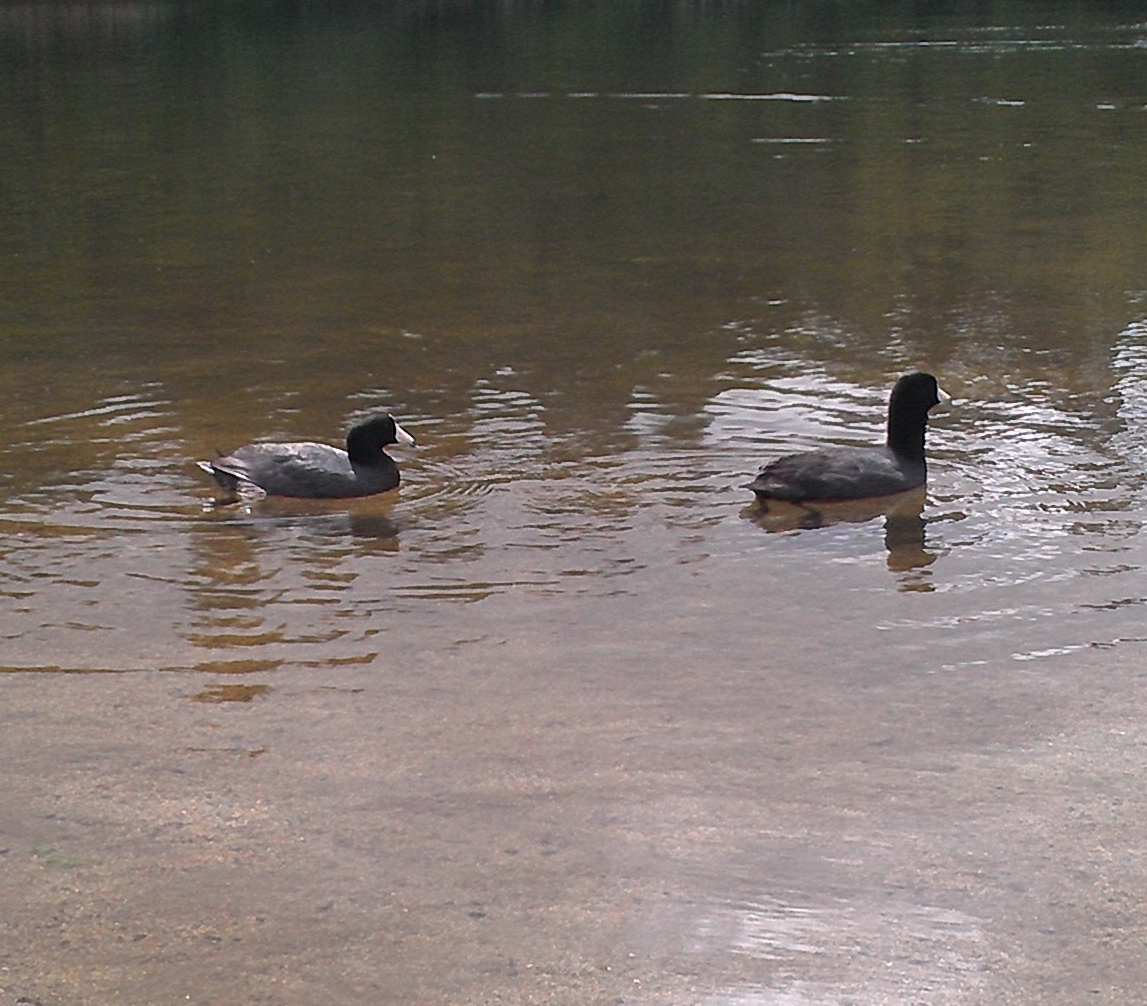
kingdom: Animalia
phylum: Chordata
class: Aves
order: Gruiformes
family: Rallidae
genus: Fulica
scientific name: Fulica americana
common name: American coot
